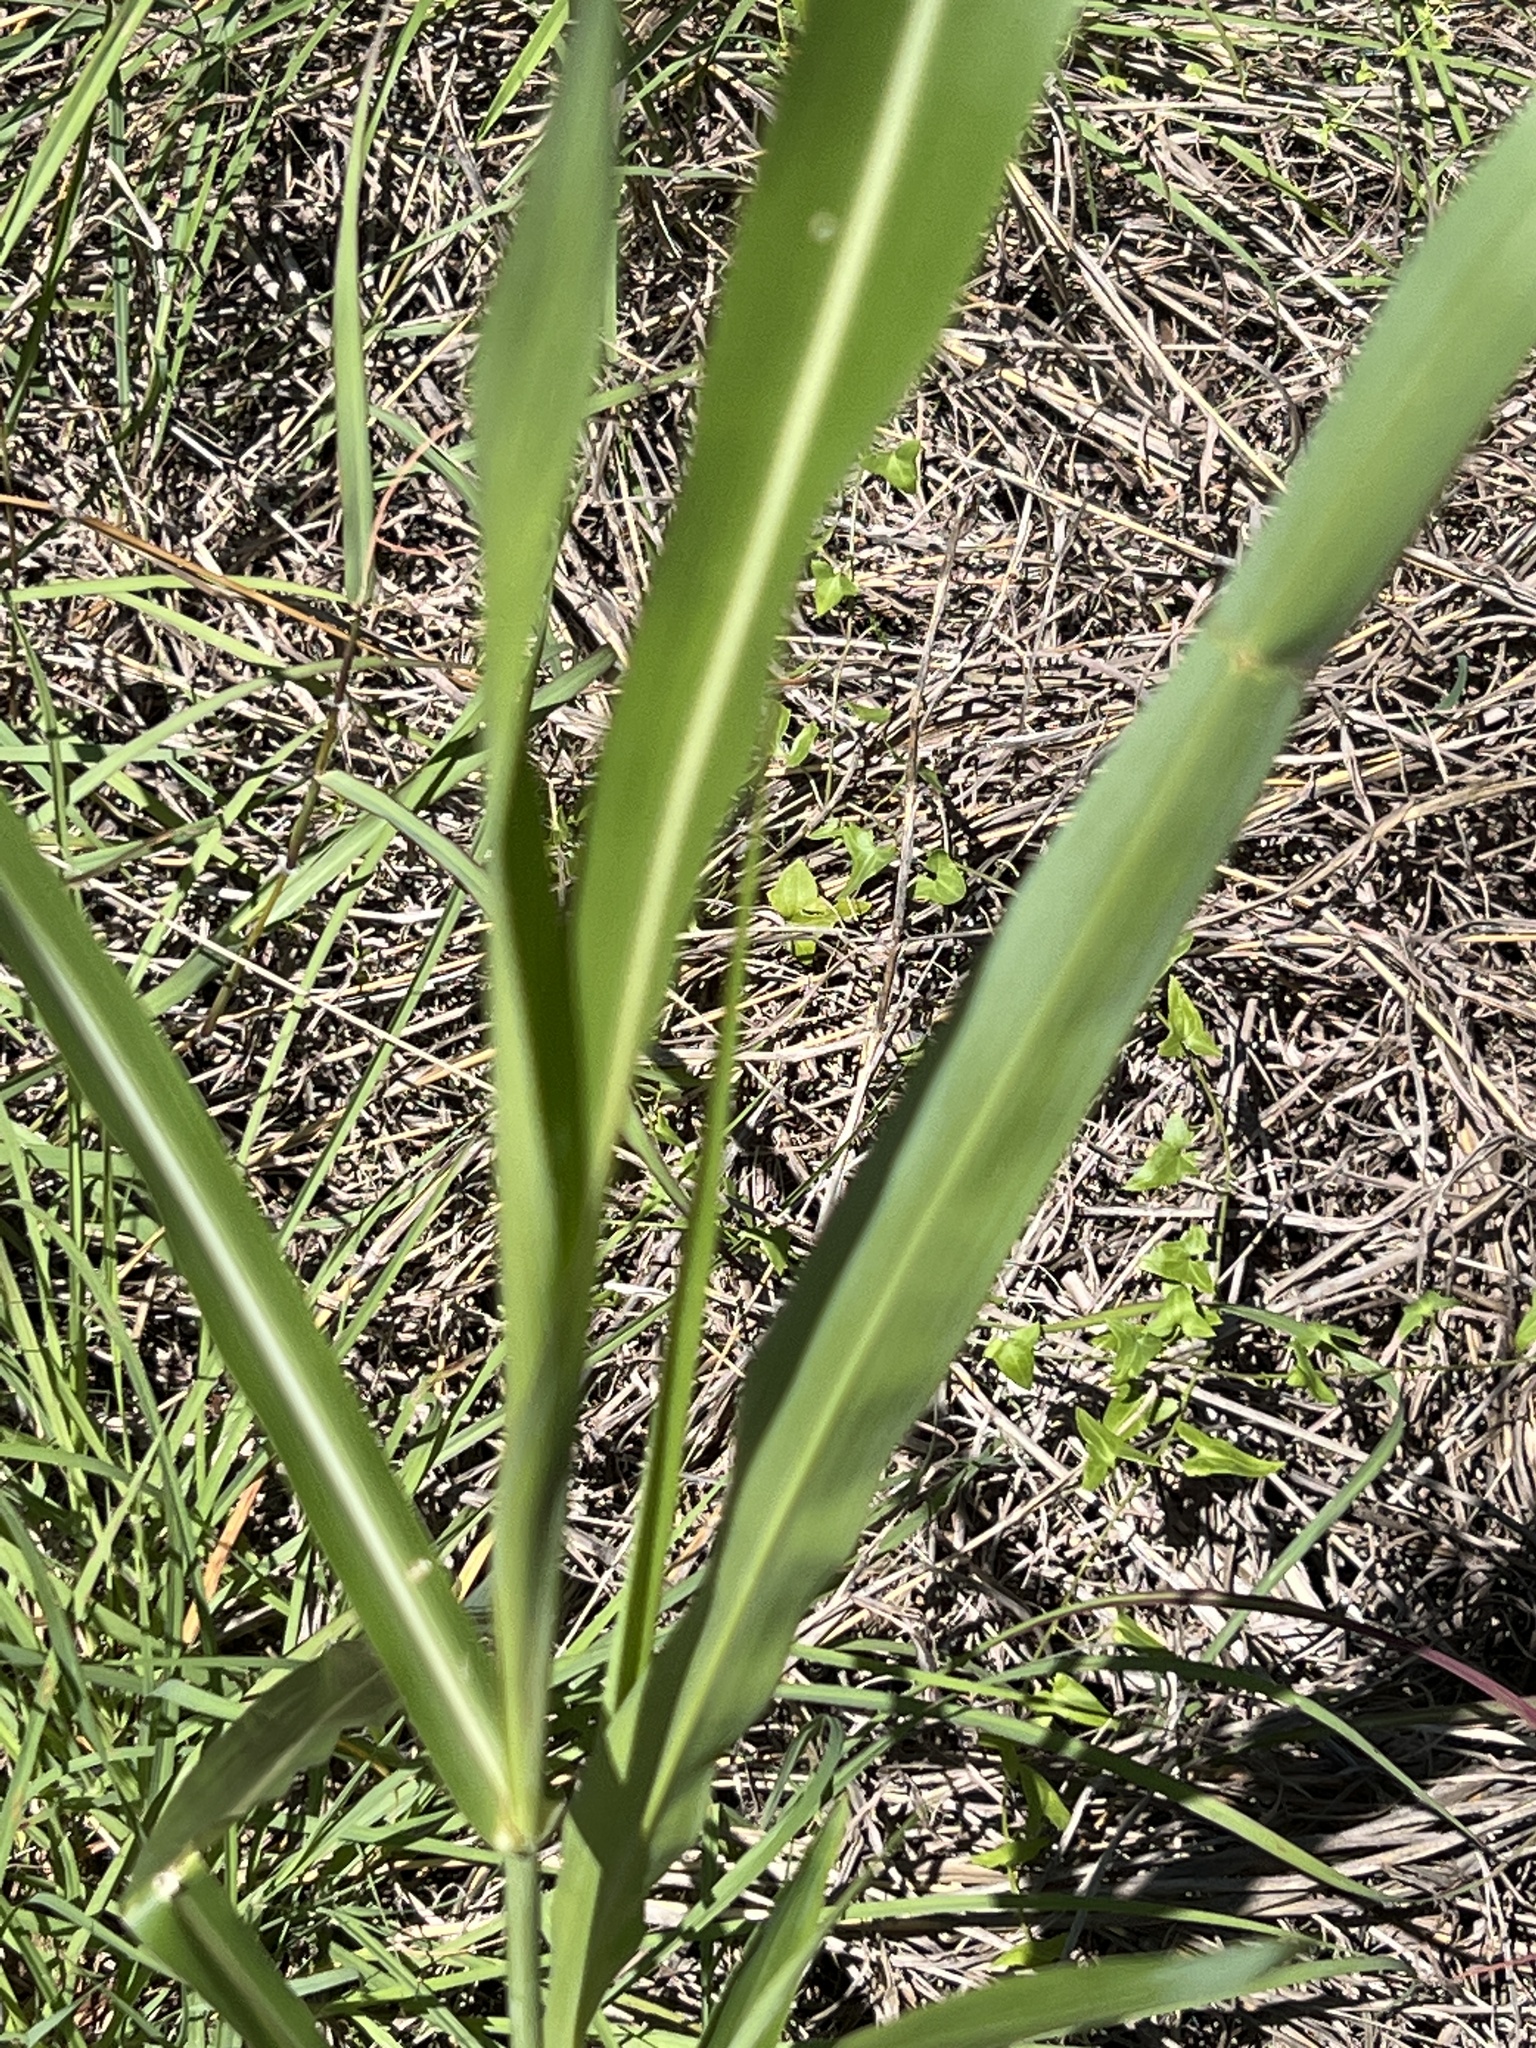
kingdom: Plantae
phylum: Tracheophyta
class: Liliopsida
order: Poales
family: Poaceae
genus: Sorghum
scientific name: Sorghum halepense
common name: Johnson-grass
